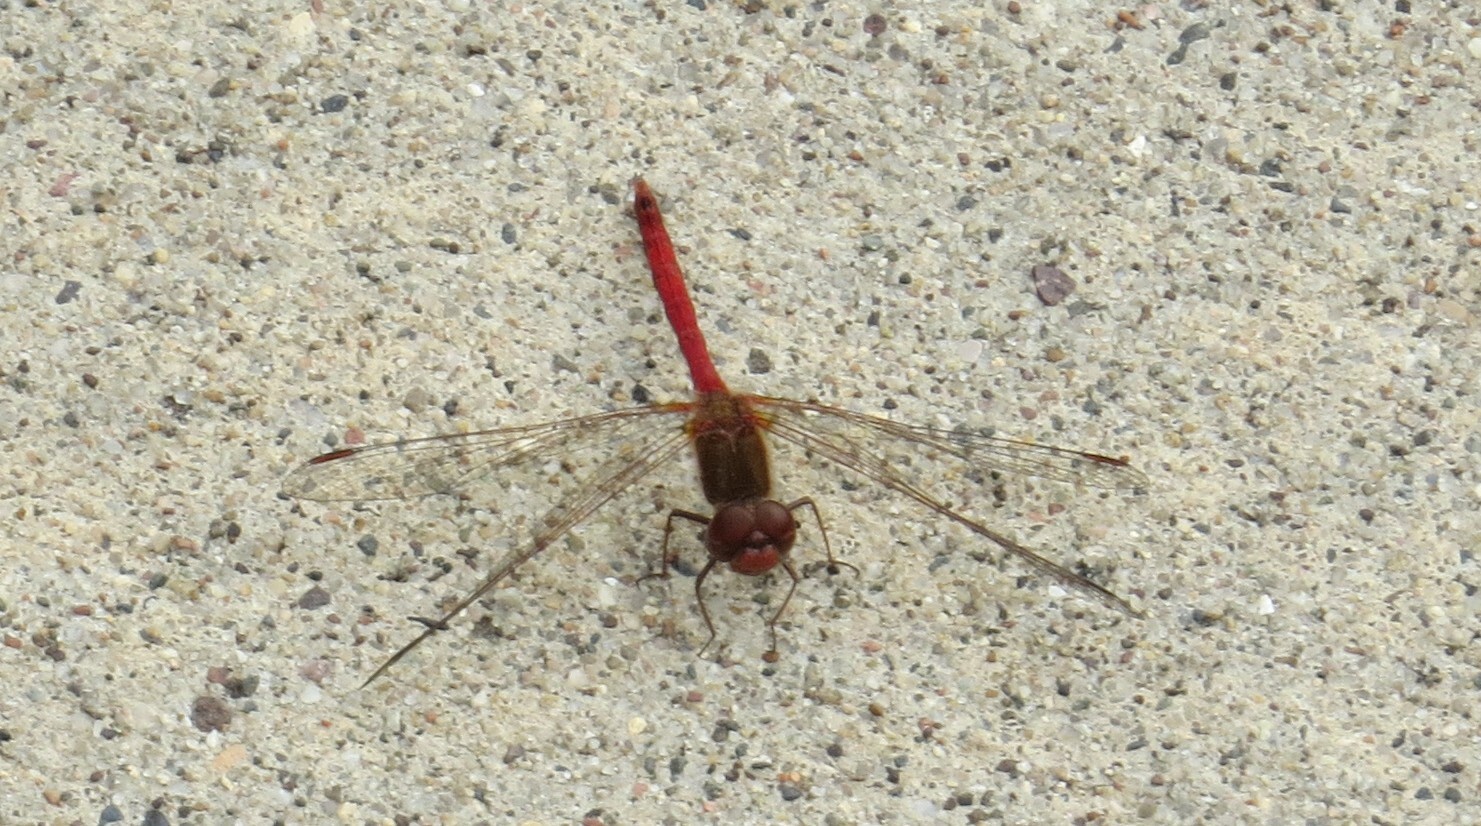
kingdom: Animalia
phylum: Arthropoda
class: Insecta
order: Odonata
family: Libellulidae
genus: Sympetrum
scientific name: Sympetrum vicinum
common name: Autumn meadowhawk
